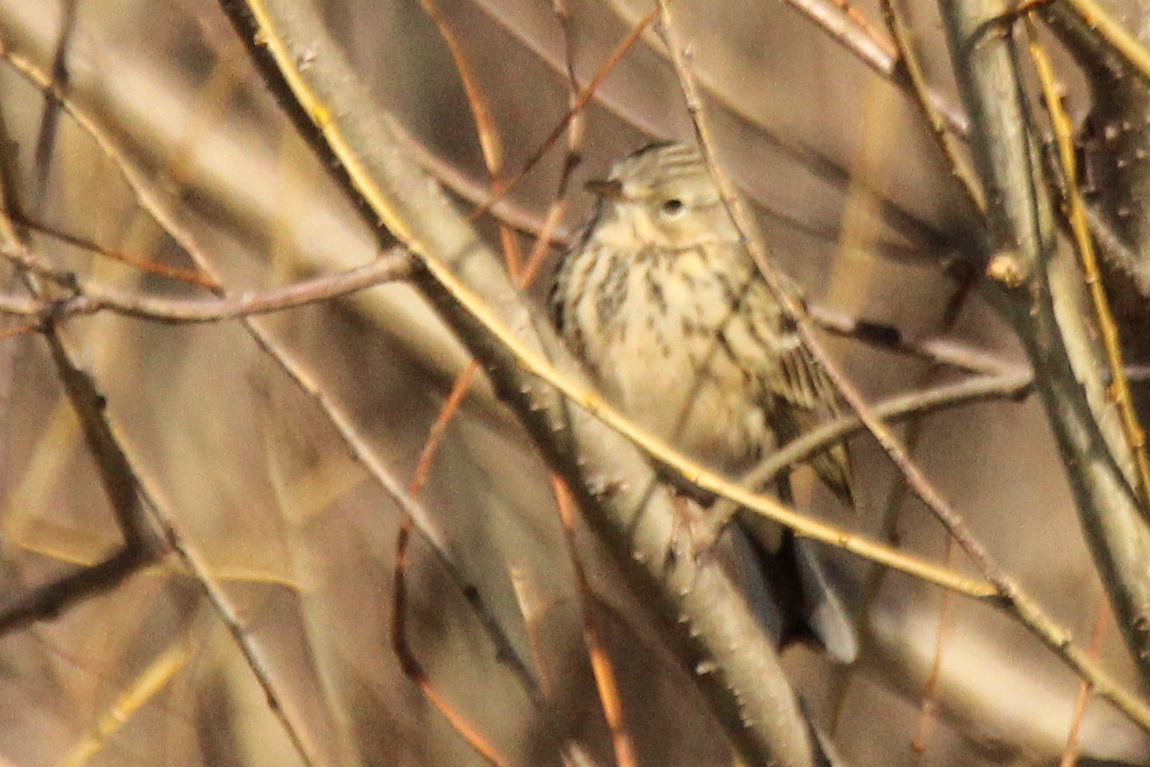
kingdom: Animalia
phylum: Chordata
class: Aves
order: Passeriformes
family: Motacillidae
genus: Anthus
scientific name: Anthus pratensis
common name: Meadow pipit
